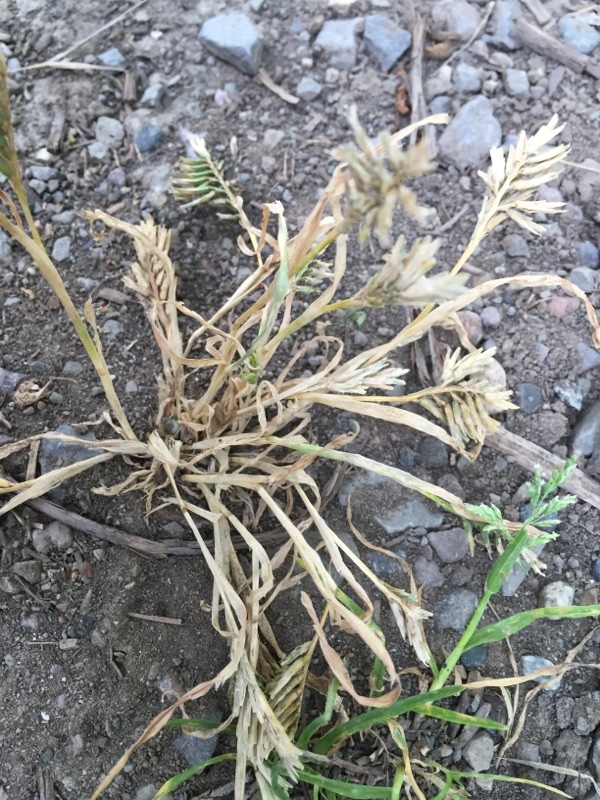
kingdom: Plantae
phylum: Tracheophyta
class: Liliopsida
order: Poales
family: Poaceae
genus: Sclerochloa
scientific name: Sclerochloa dura
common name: Common hardgrass
